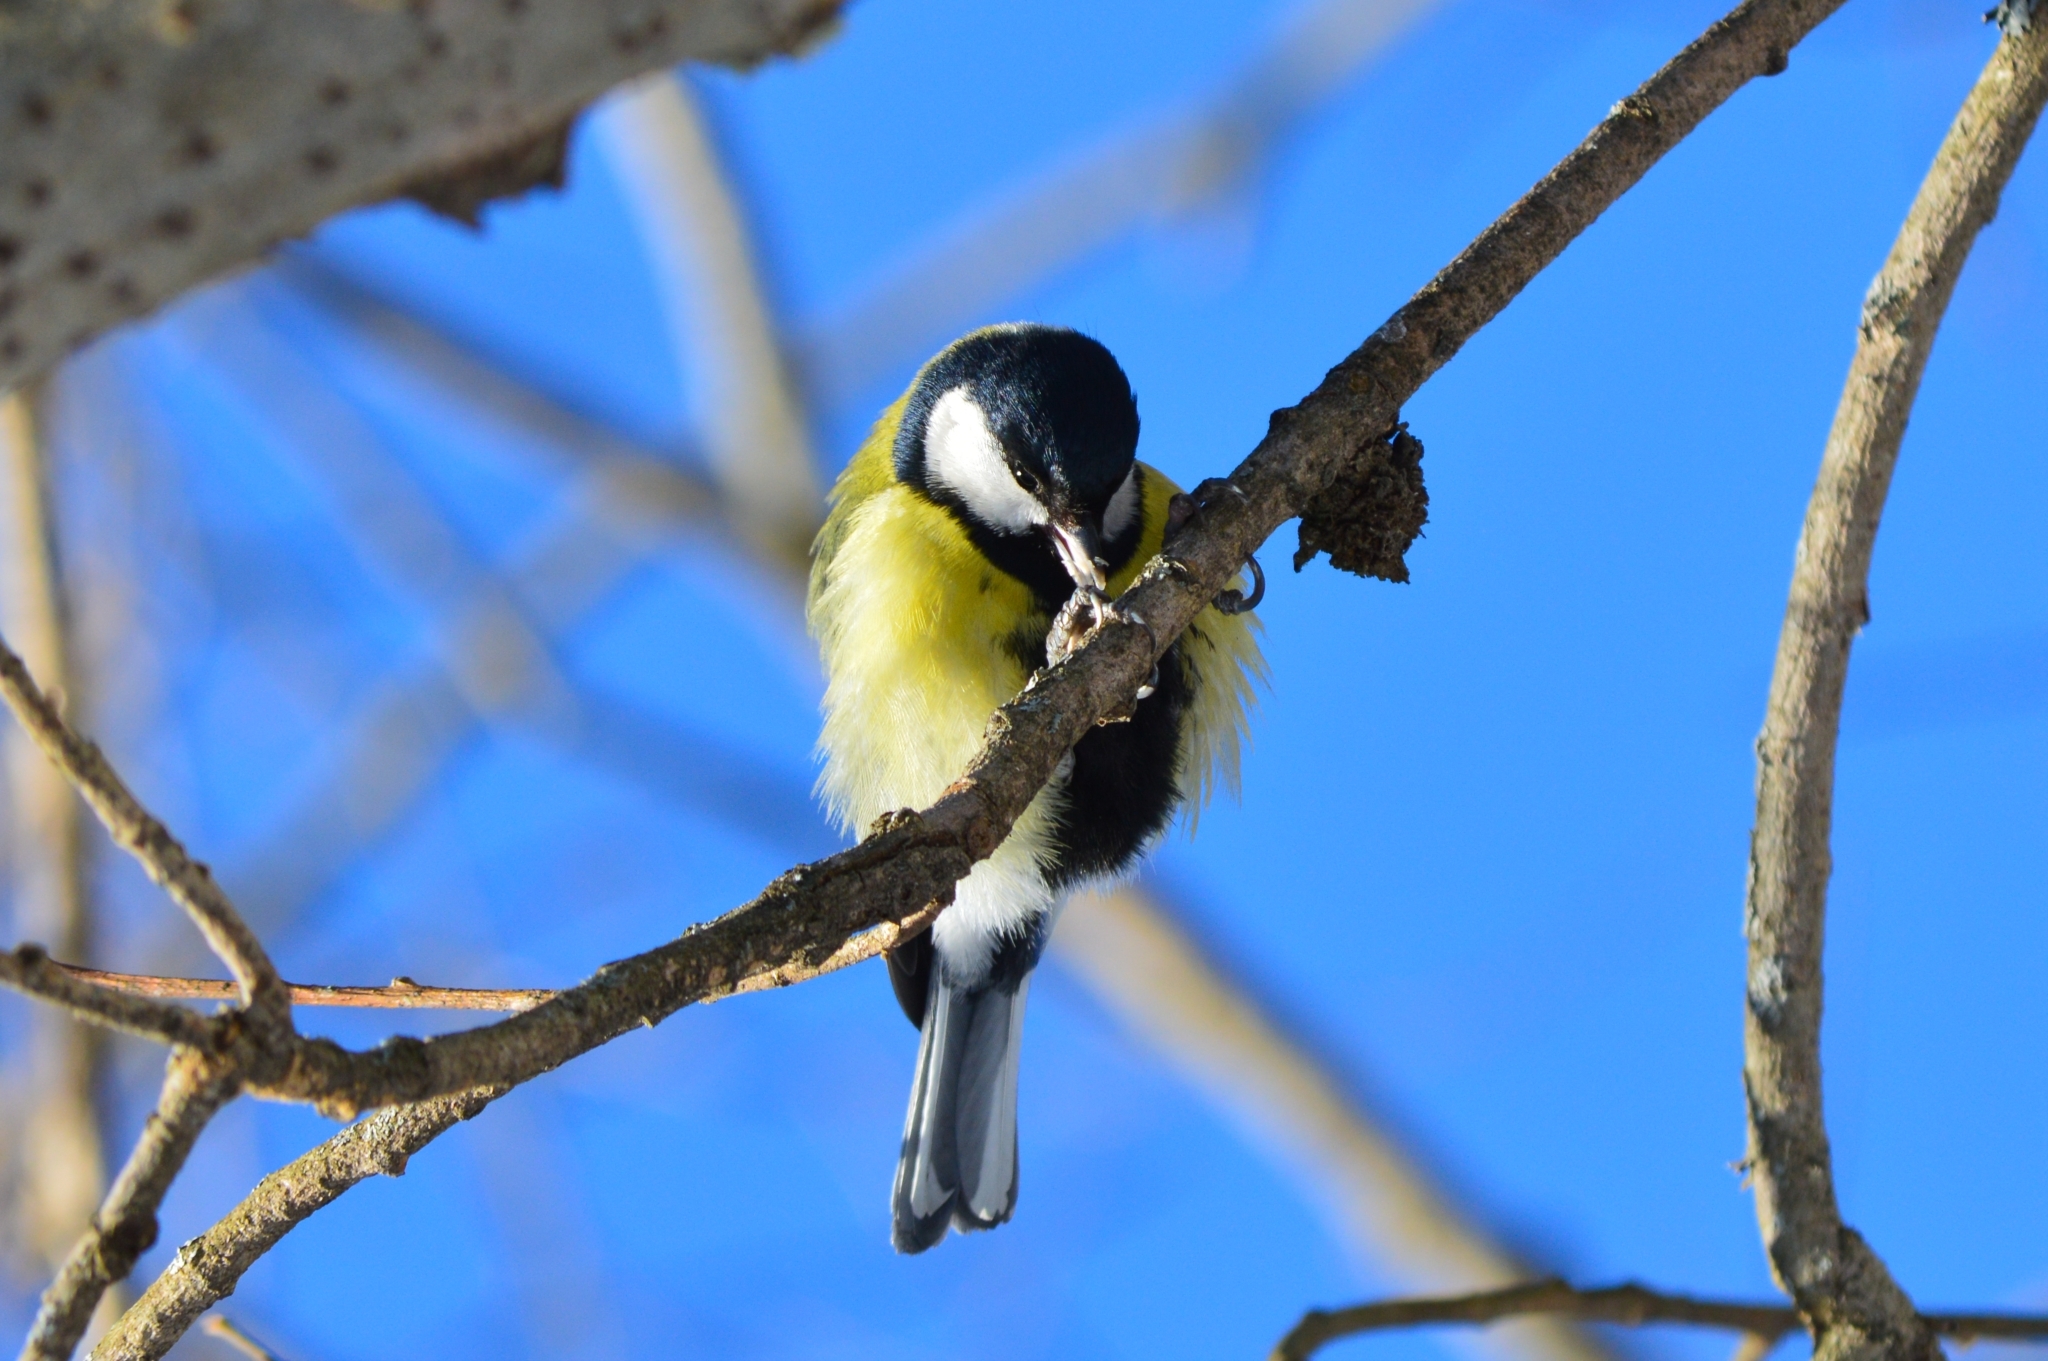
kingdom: Animalia
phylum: Chordata
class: Aves
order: Passeriformes
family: Paridae
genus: Parus
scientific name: Parus major
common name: Great tit
